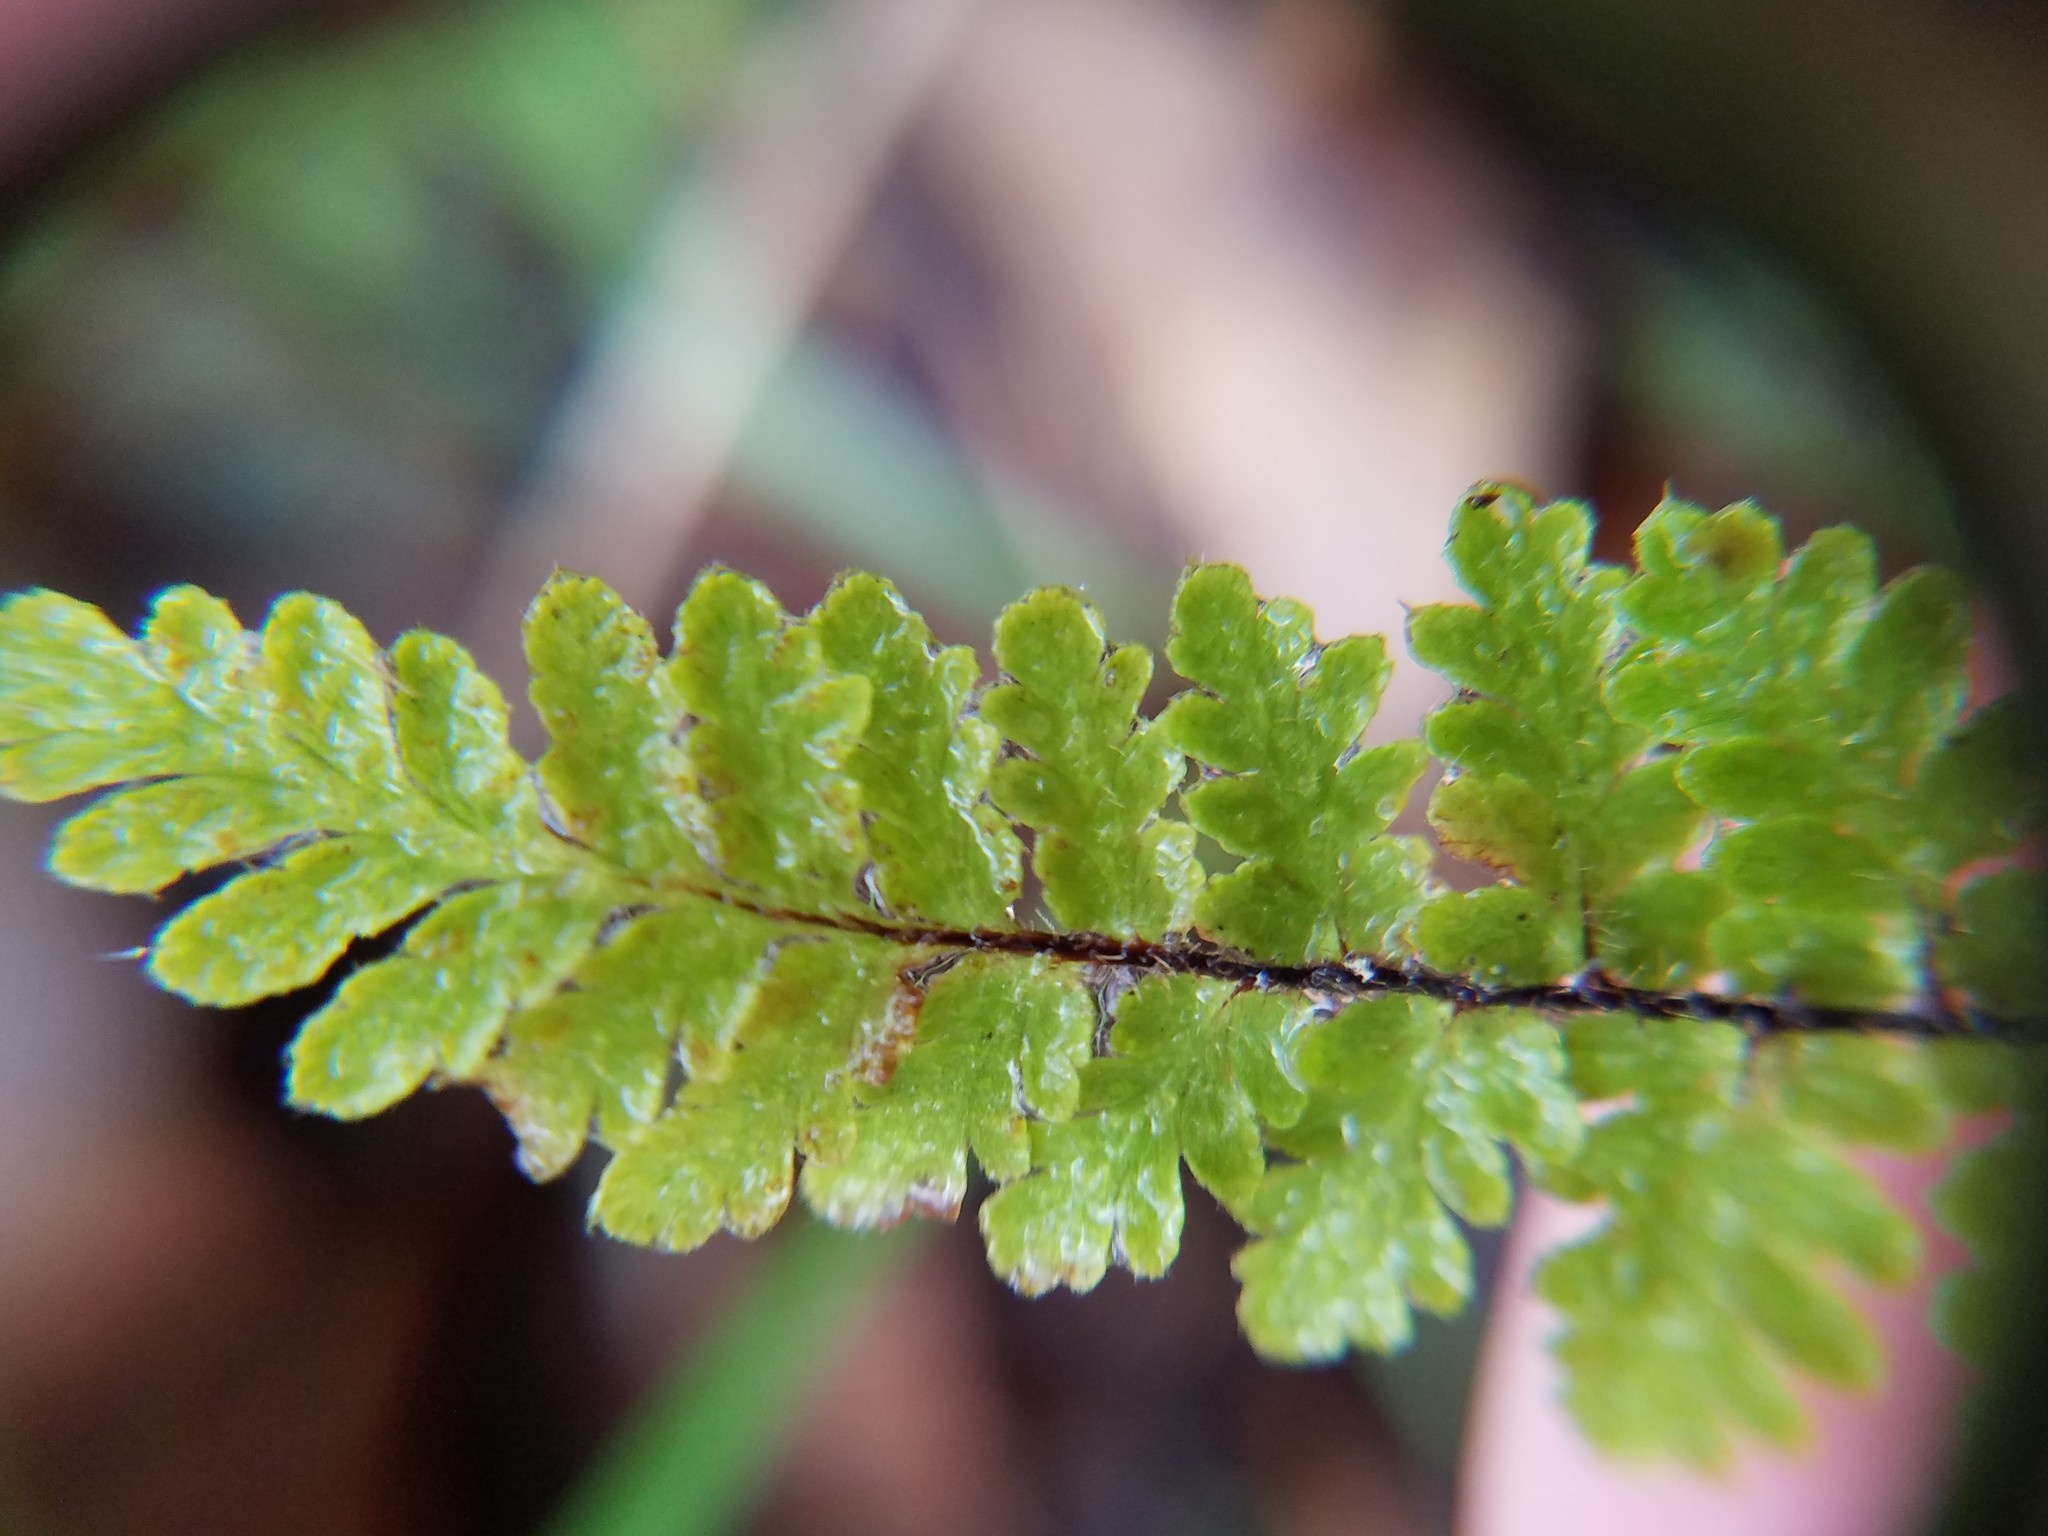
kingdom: Plantae
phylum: Tracheophyta
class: Polypodiopsida
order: Polypodiales
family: Pteridaceae
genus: Myriopteris
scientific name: Myriopteris alabamensis
